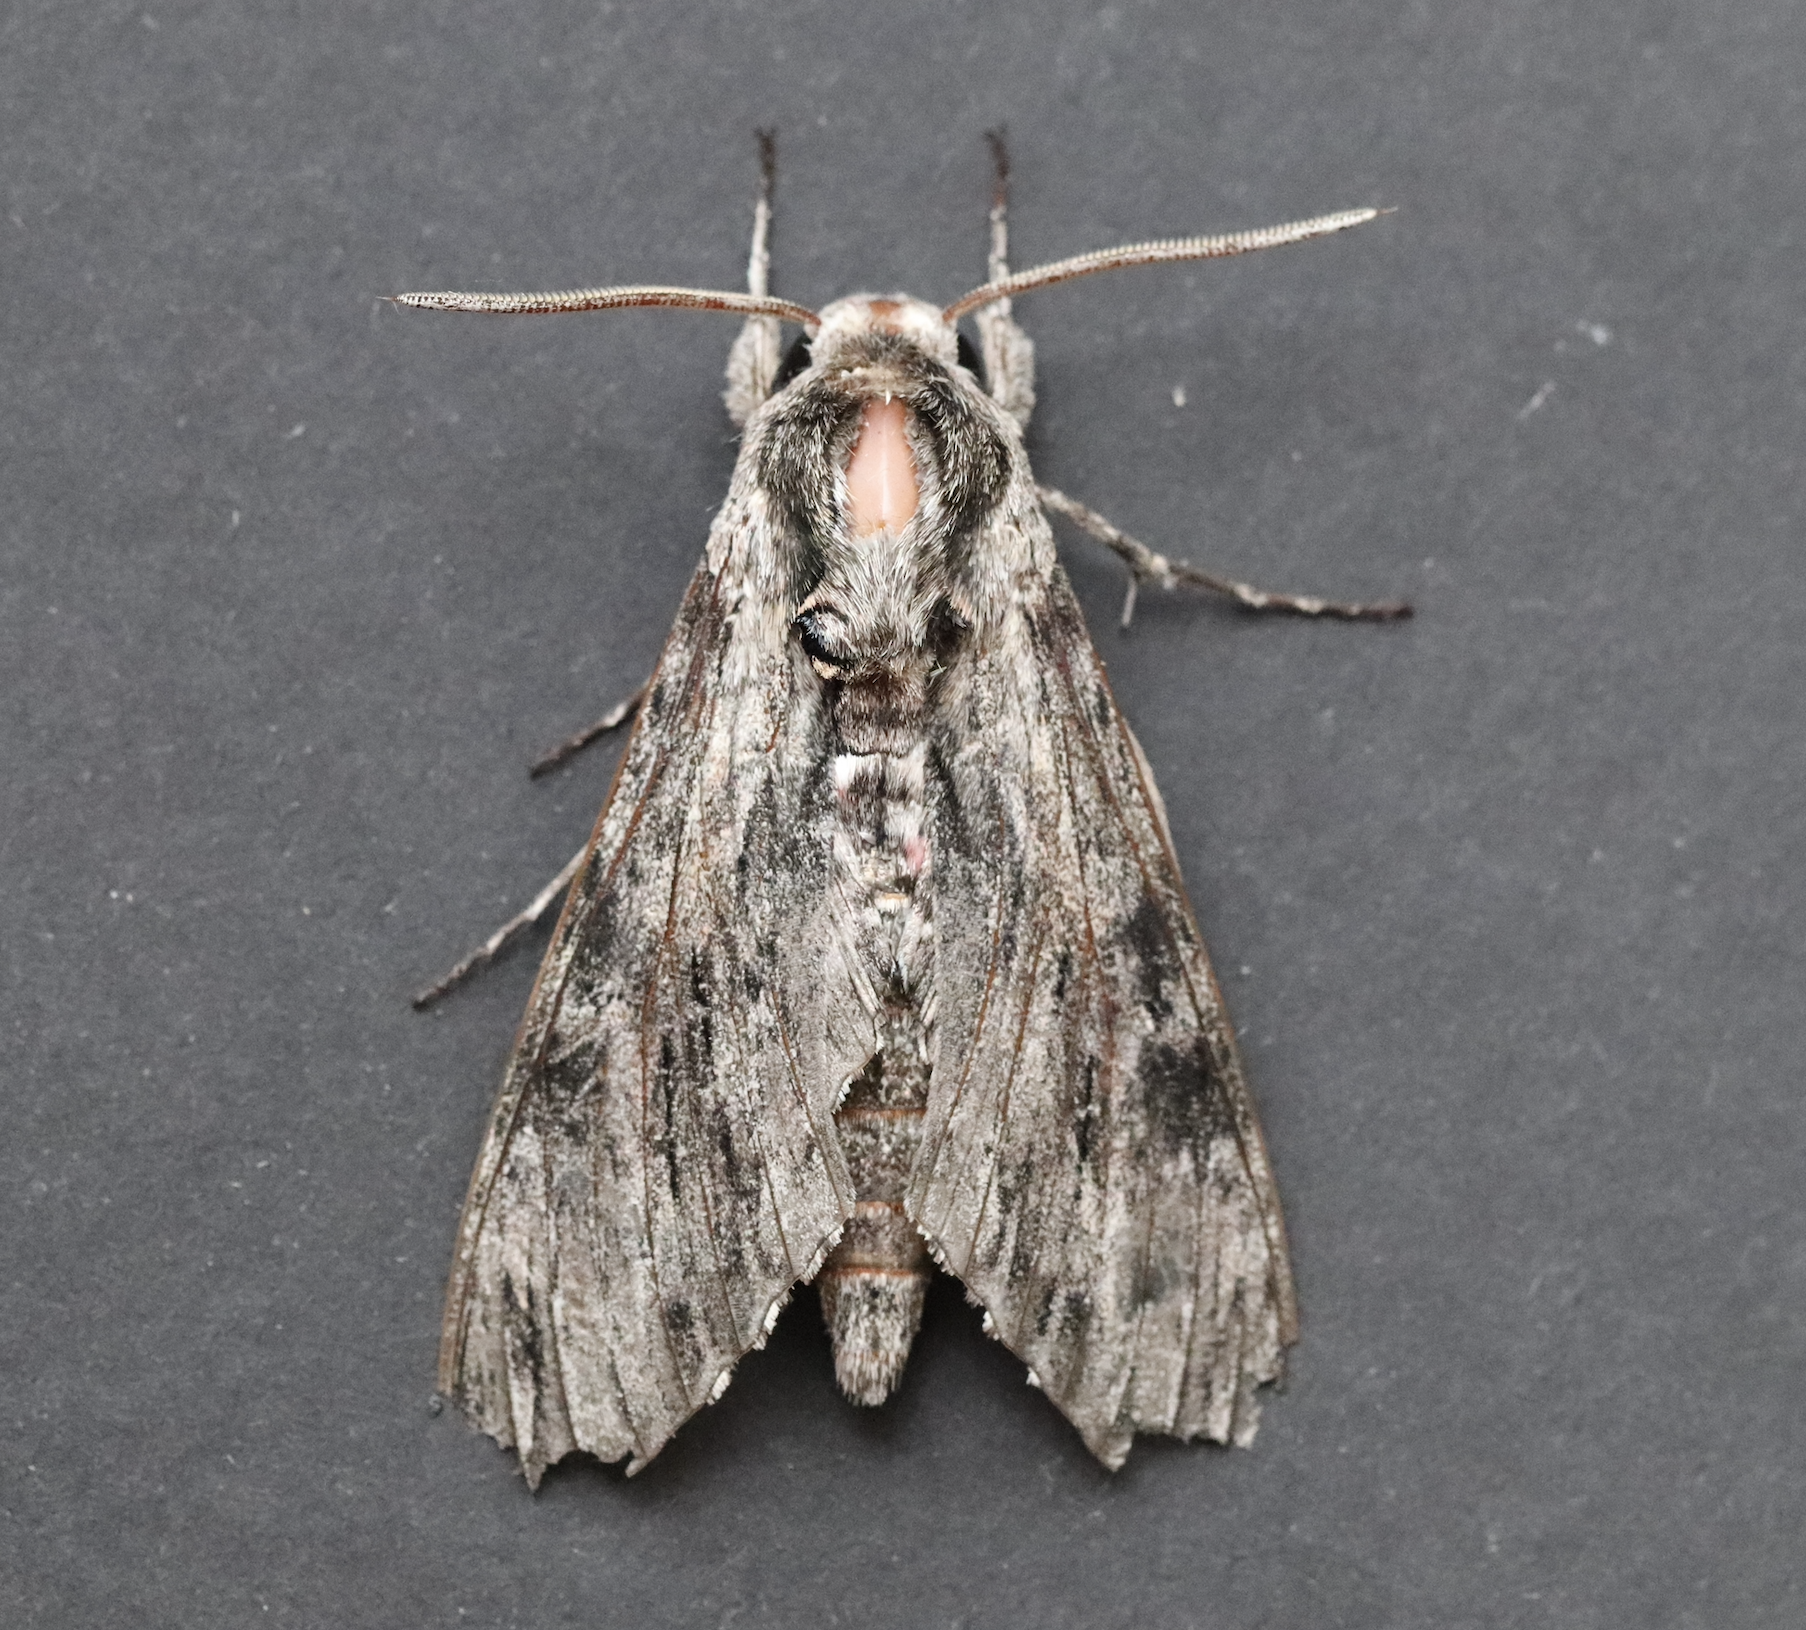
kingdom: Animalia
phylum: Arthropoda
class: Insecta
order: Lepidoptera
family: Sphingidae
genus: Agrius
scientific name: Agrius convolvuli
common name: Convolvulus hawkmoth
